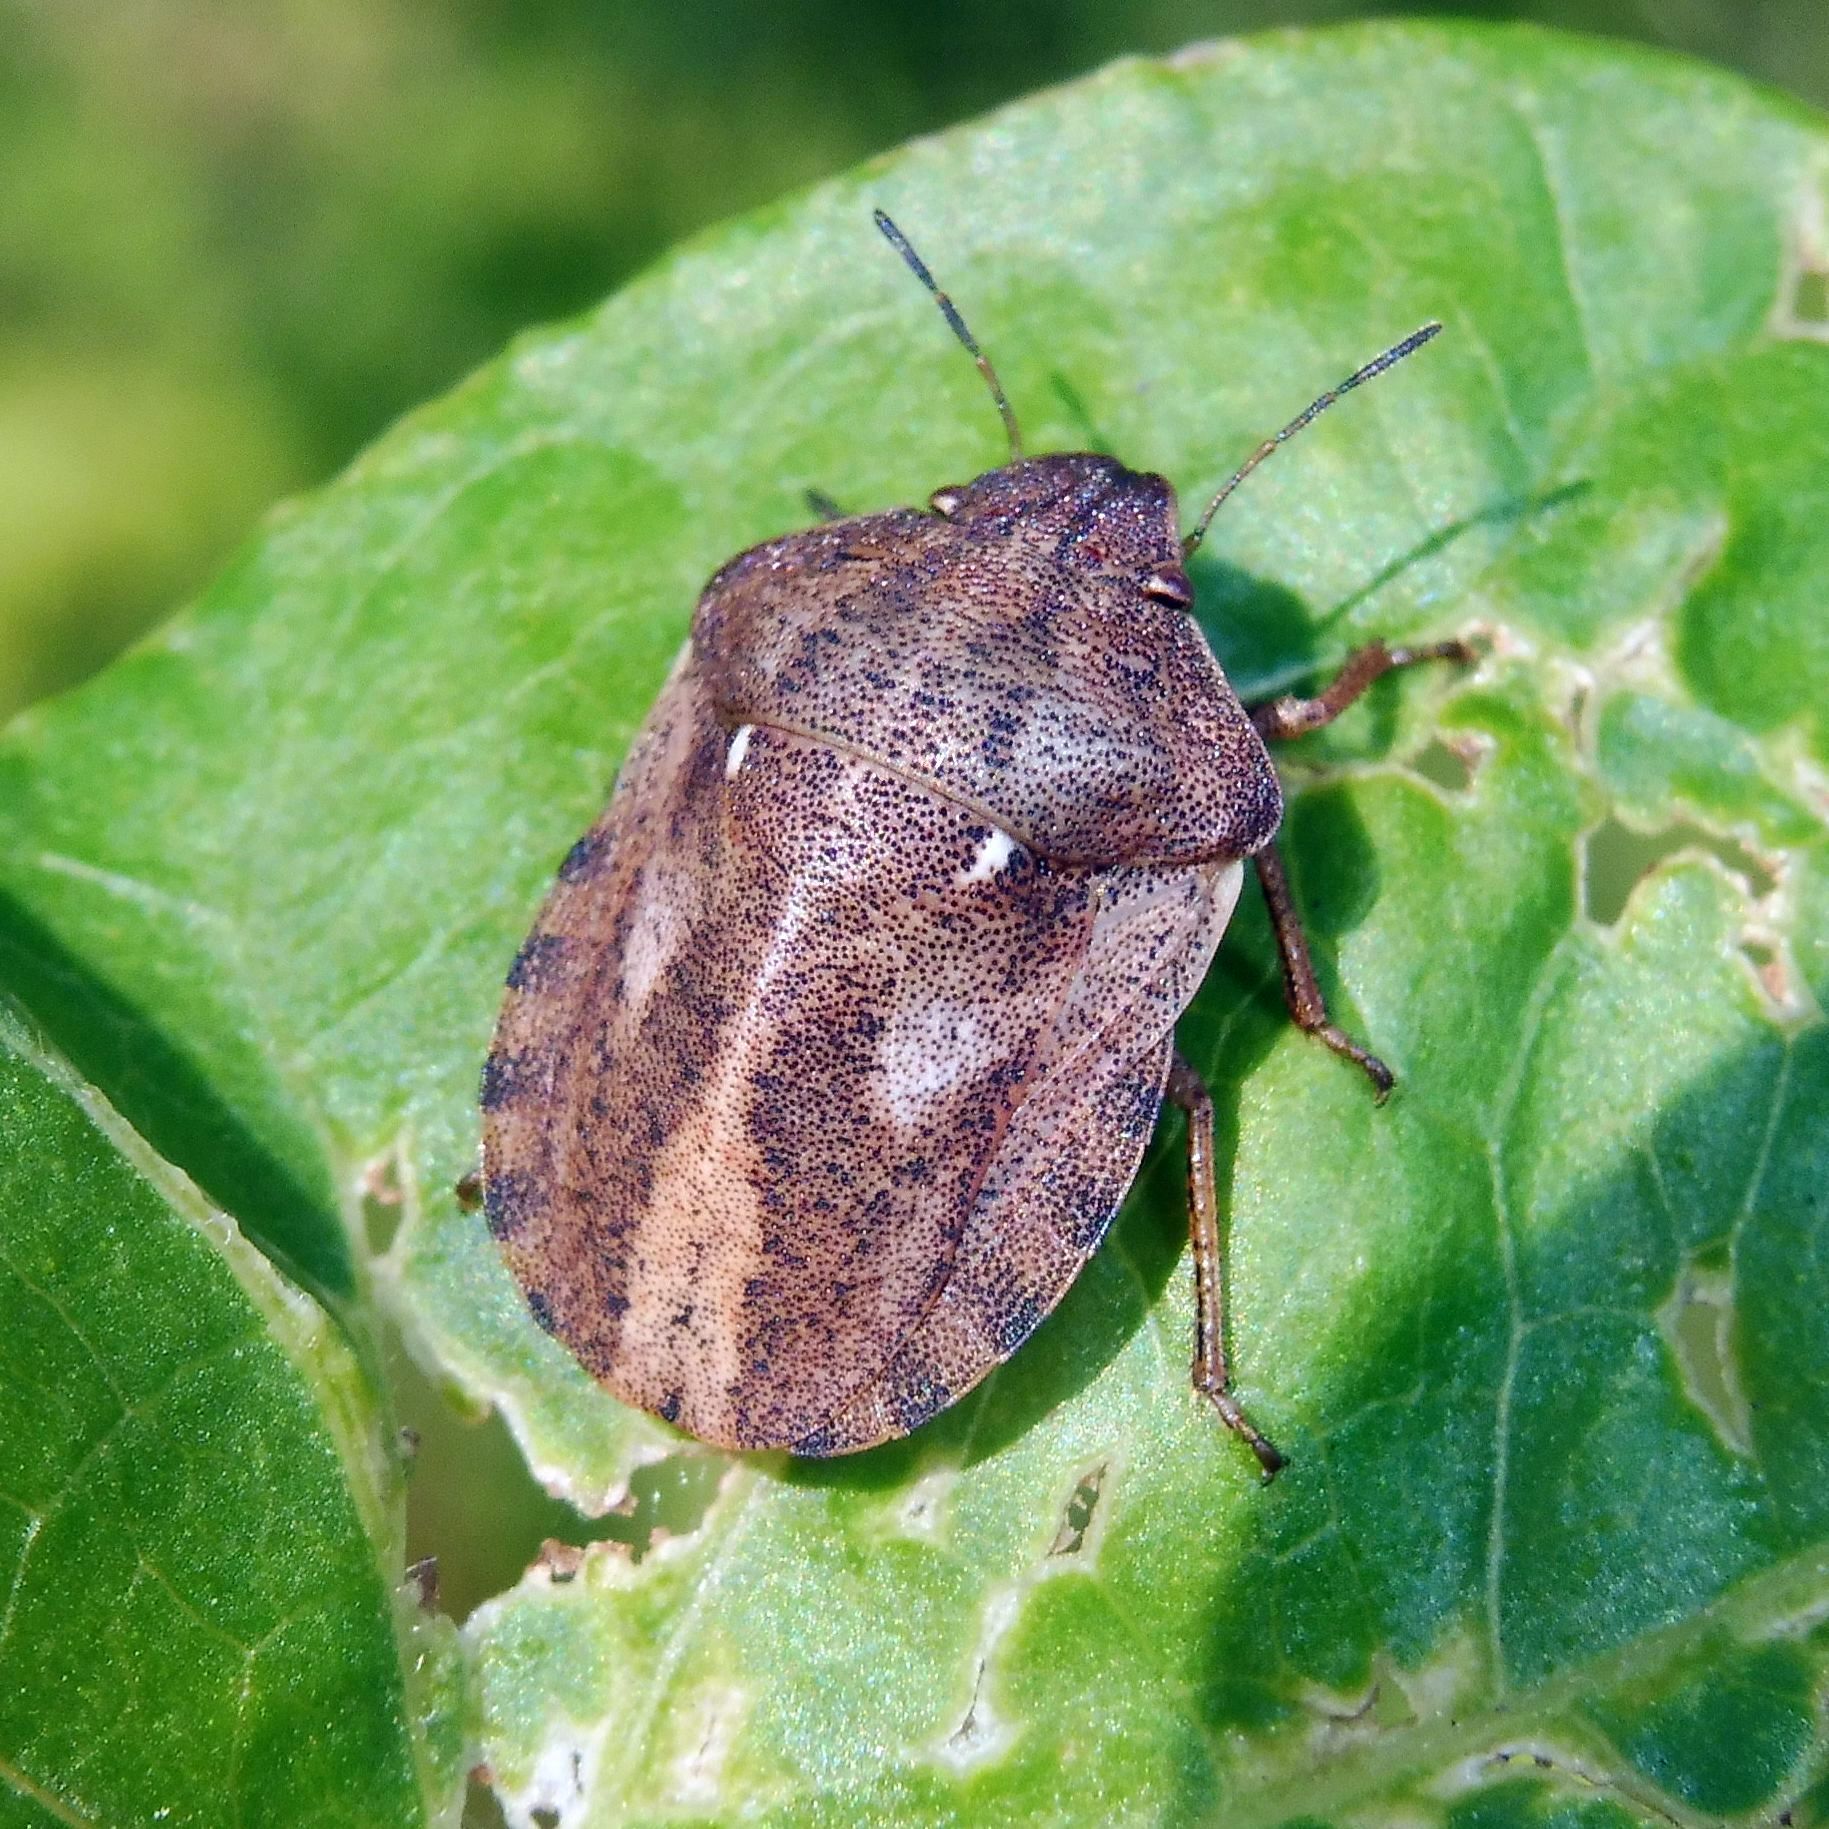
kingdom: Animalia
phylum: Arthropoda
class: Insecta
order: Hemiptera
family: Scutelleridae
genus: Eurygaster
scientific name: Eurygaster testudinaria
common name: Tortoise bug
